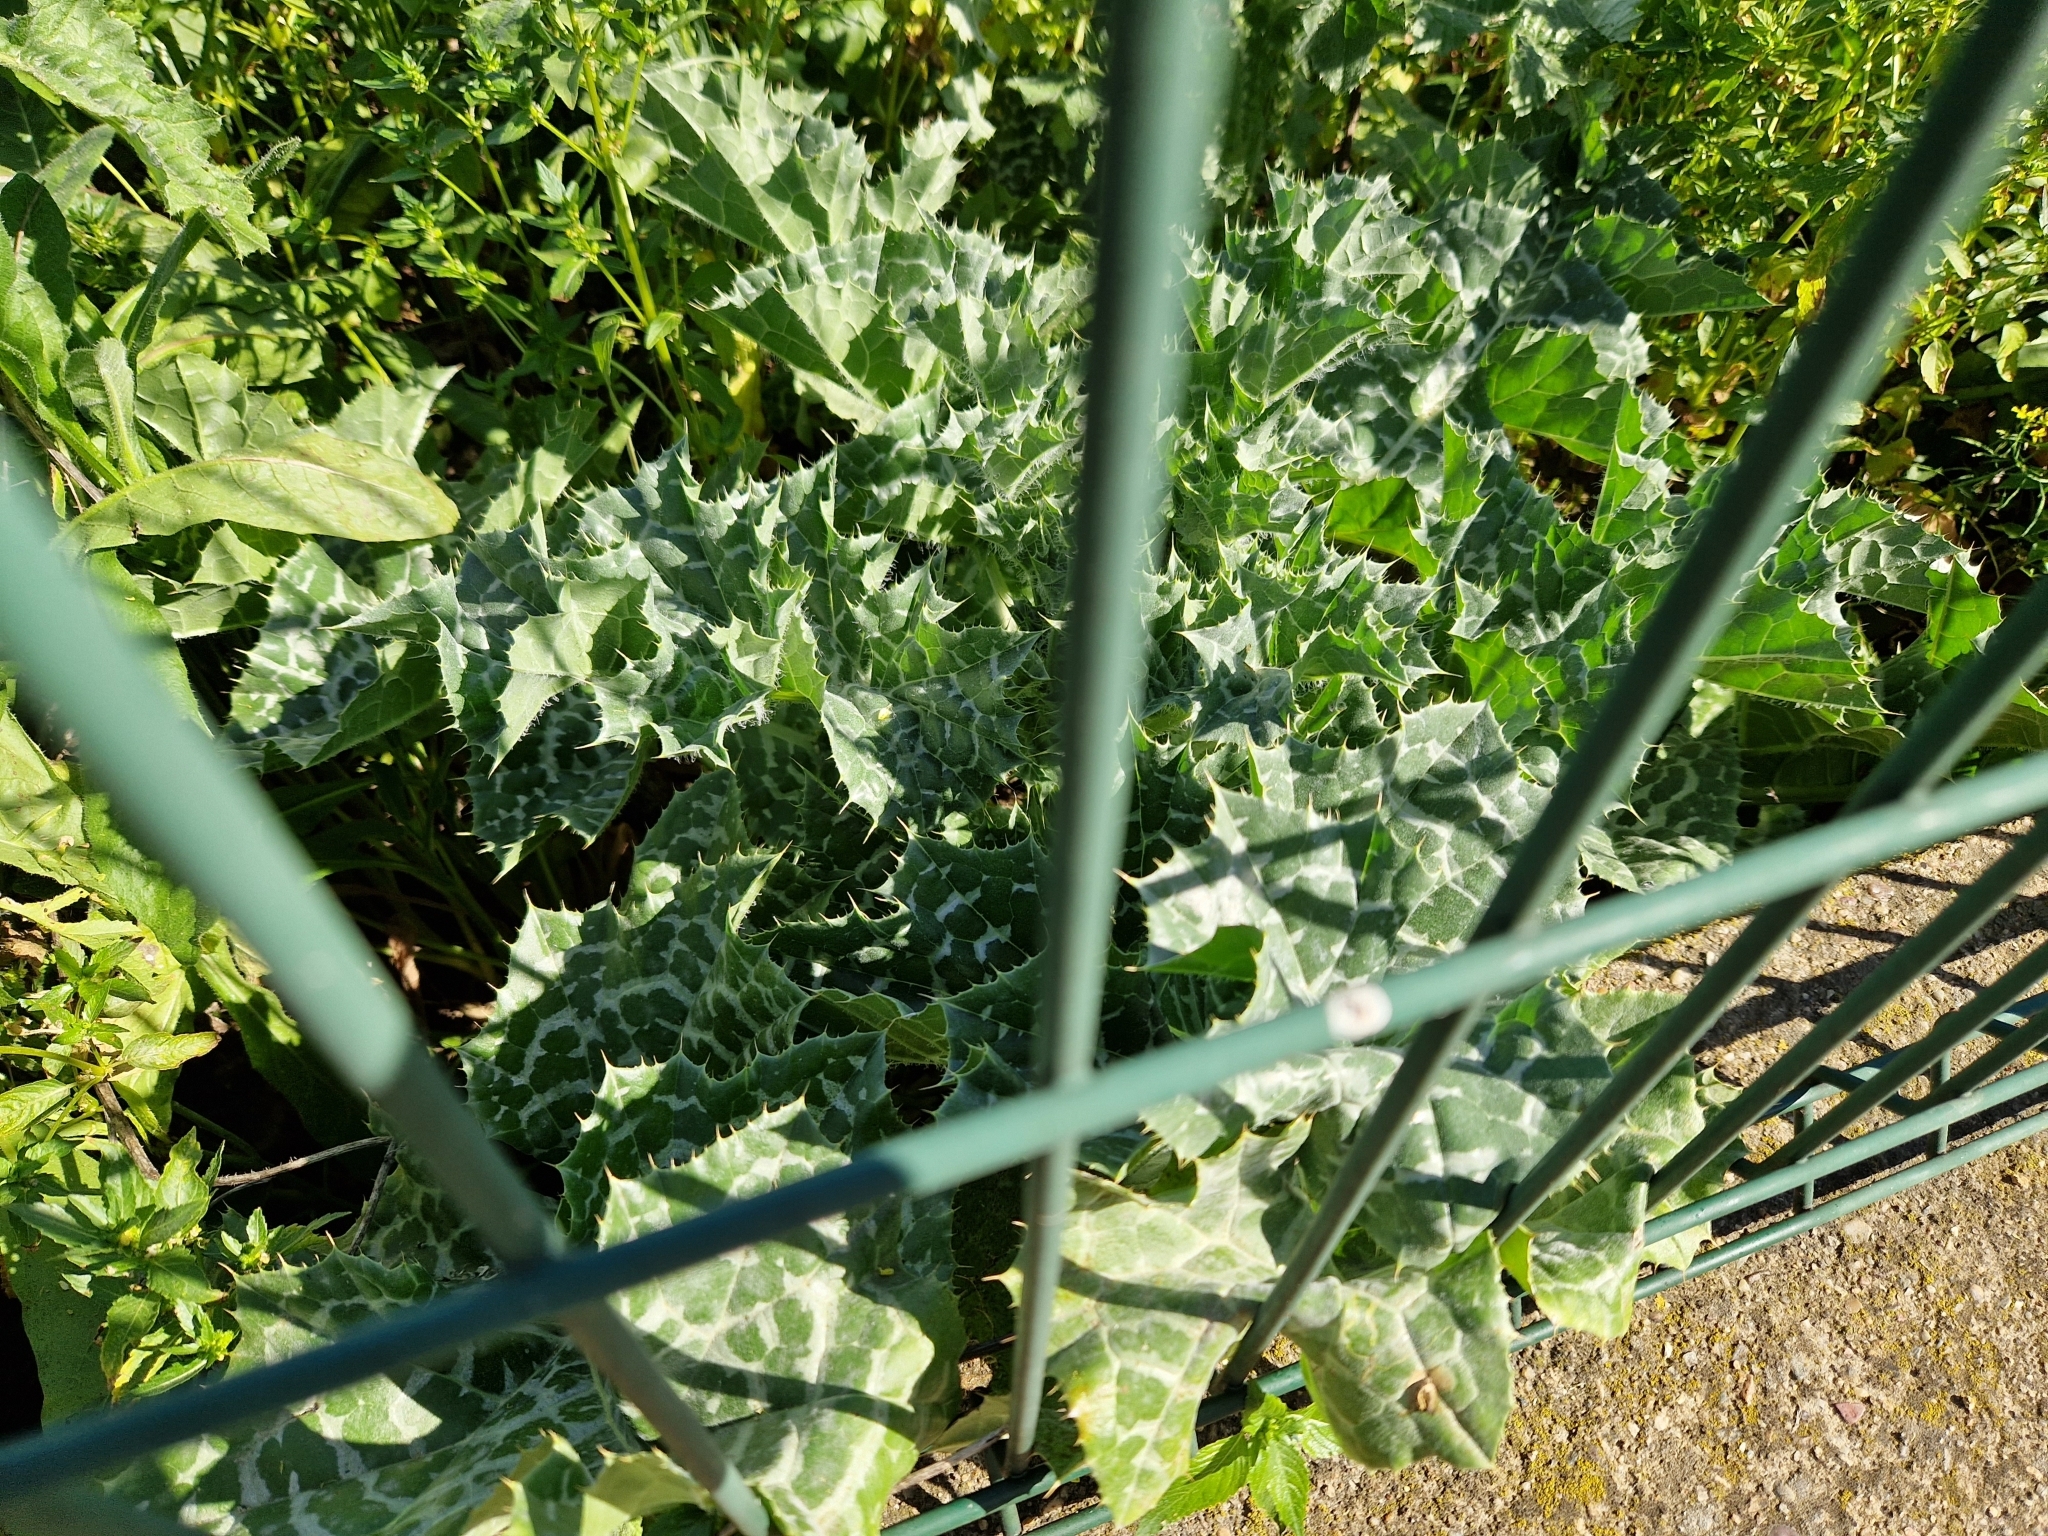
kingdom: Plantae
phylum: Tracheophyta
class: Magnoliopsida
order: Asterales
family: Asteraceae
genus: Silybum
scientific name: Silybum marianum
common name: Milk thistle
